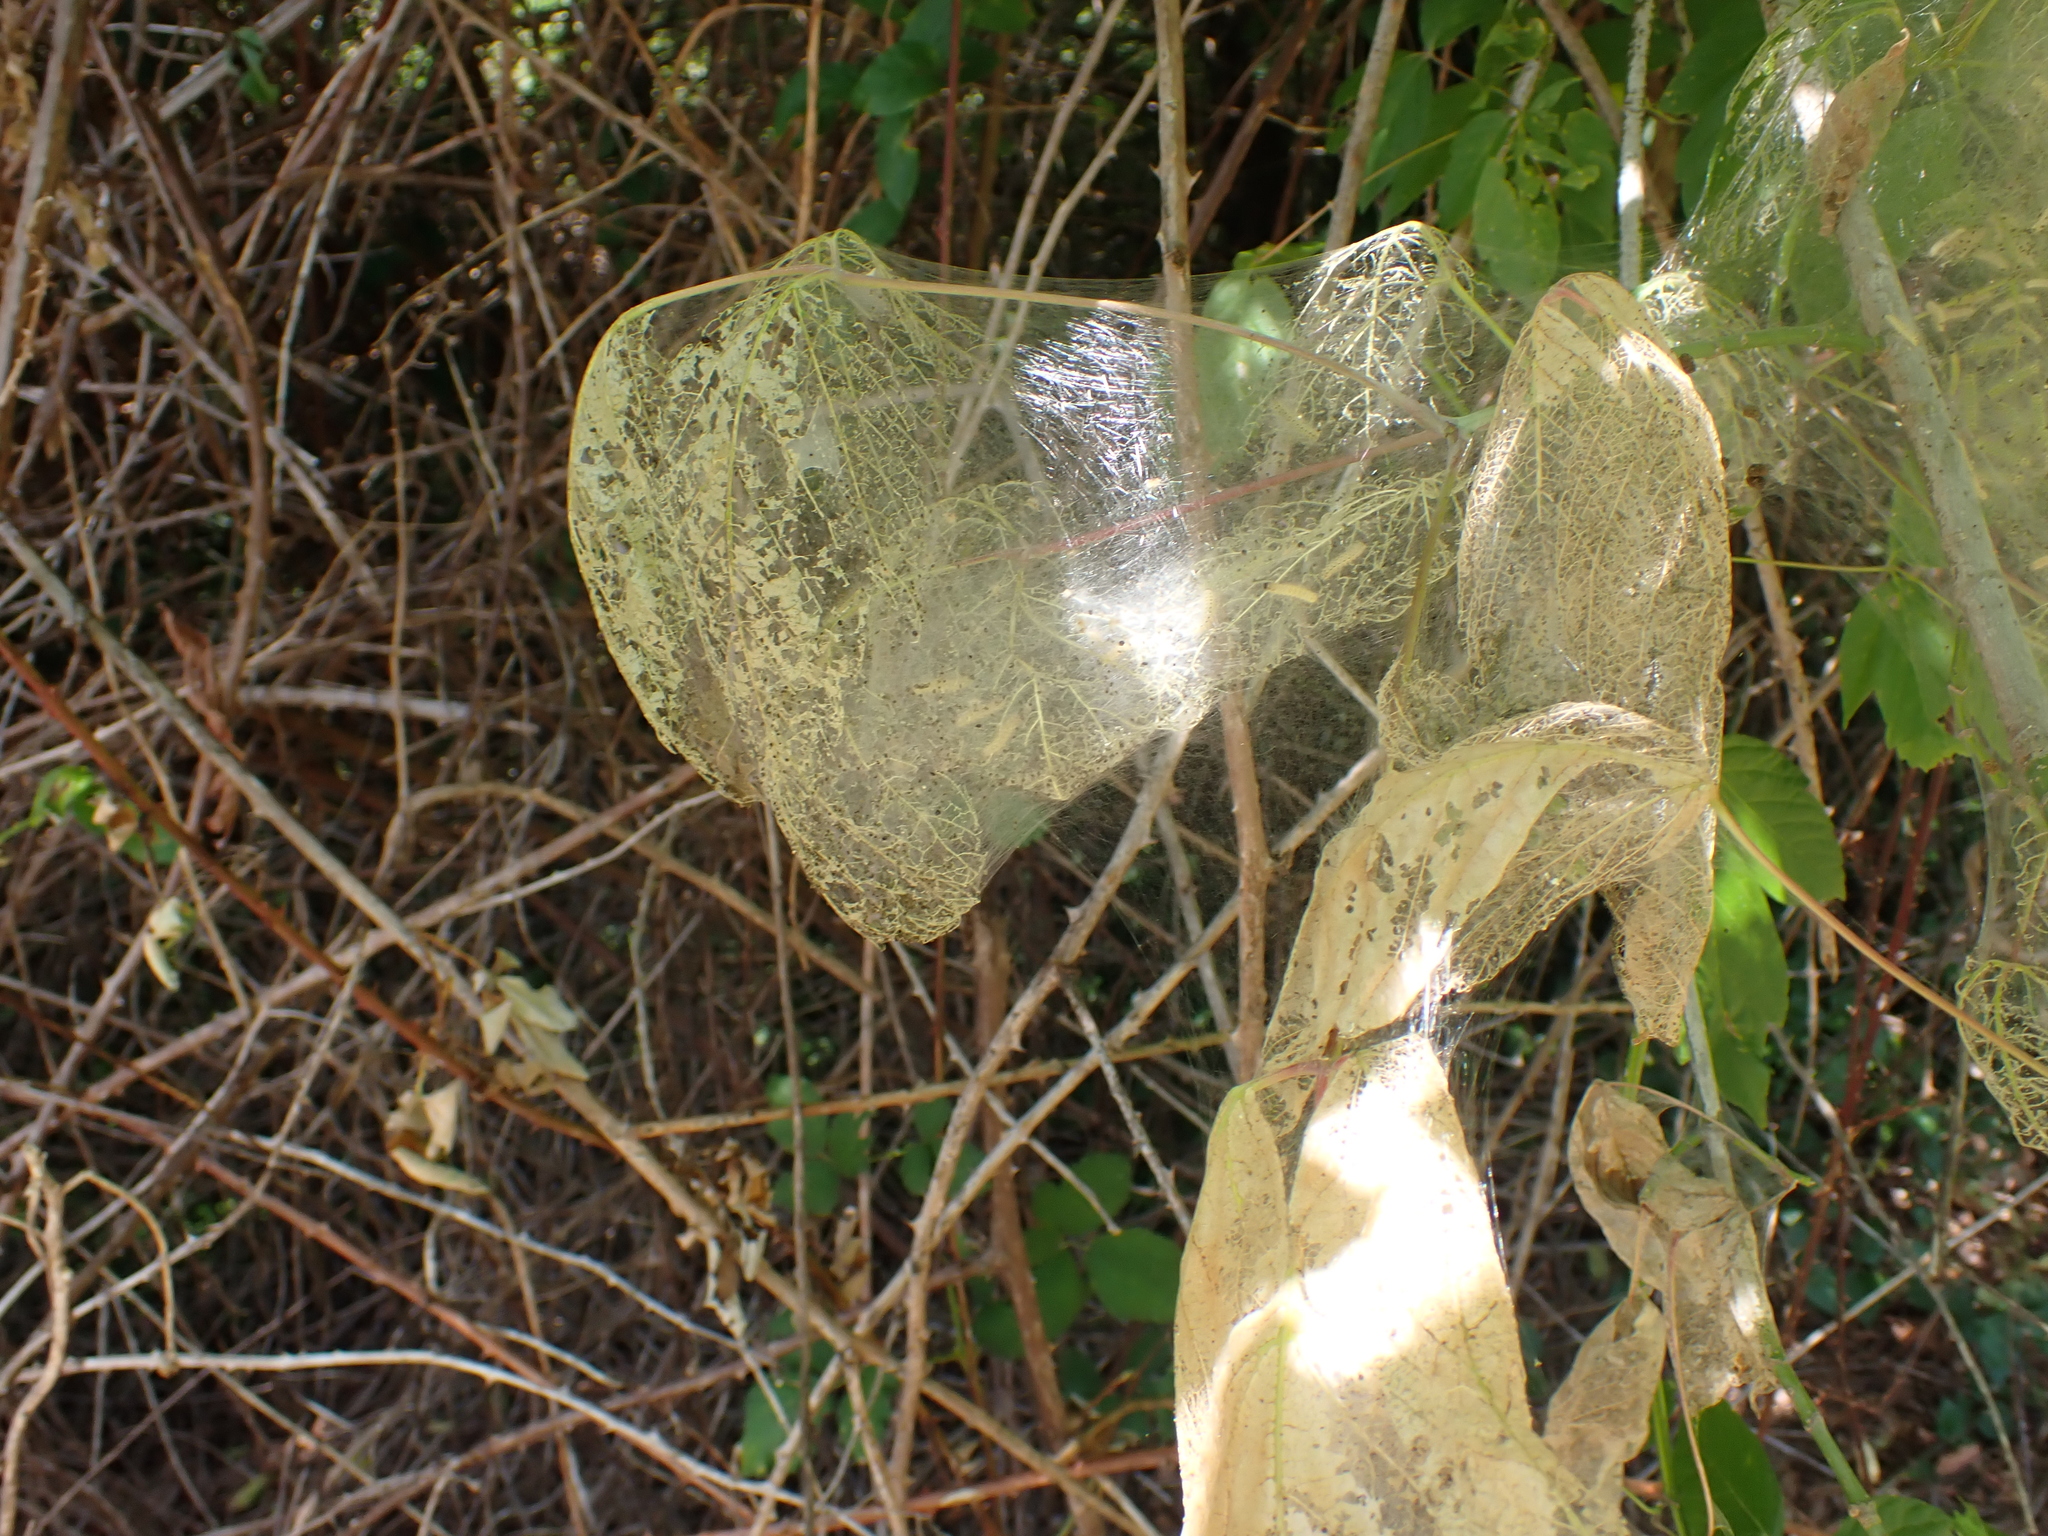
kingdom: Animalia
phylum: Arthropoda
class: Insecta
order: Lepidoptera
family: Erebidae
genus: Hyphantria
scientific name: Hyphantria cunea
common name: American white moth
